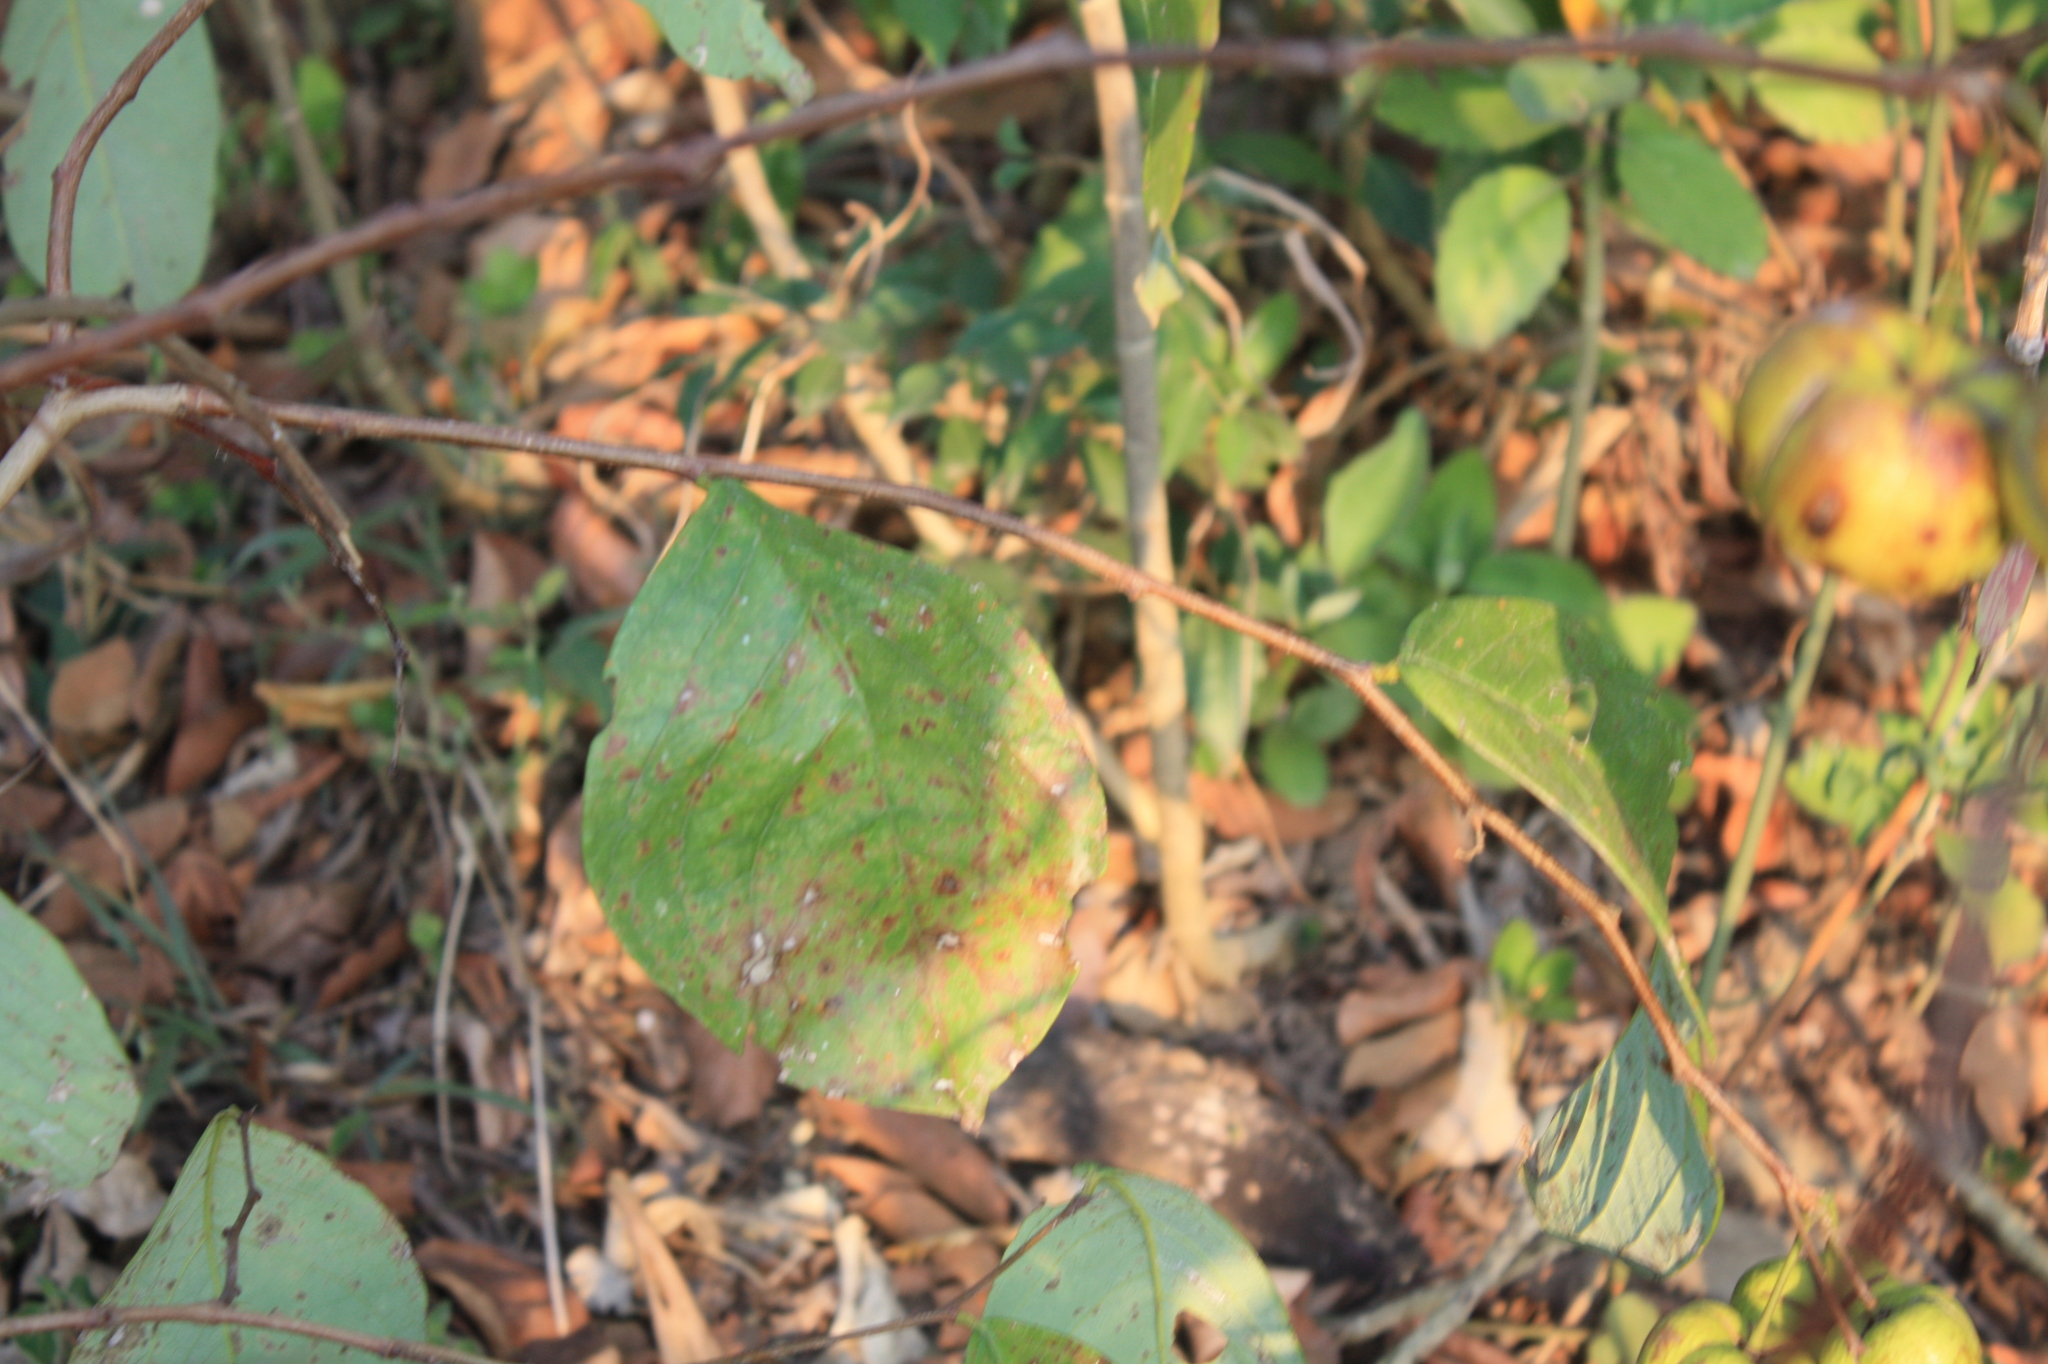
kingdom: Plantae
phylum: Tracheophyta
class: Magnoliopsida
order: Malpighiales
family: Phyllanthaceae
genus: Phyllanthus
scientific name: Phyllanthus grandifolius
